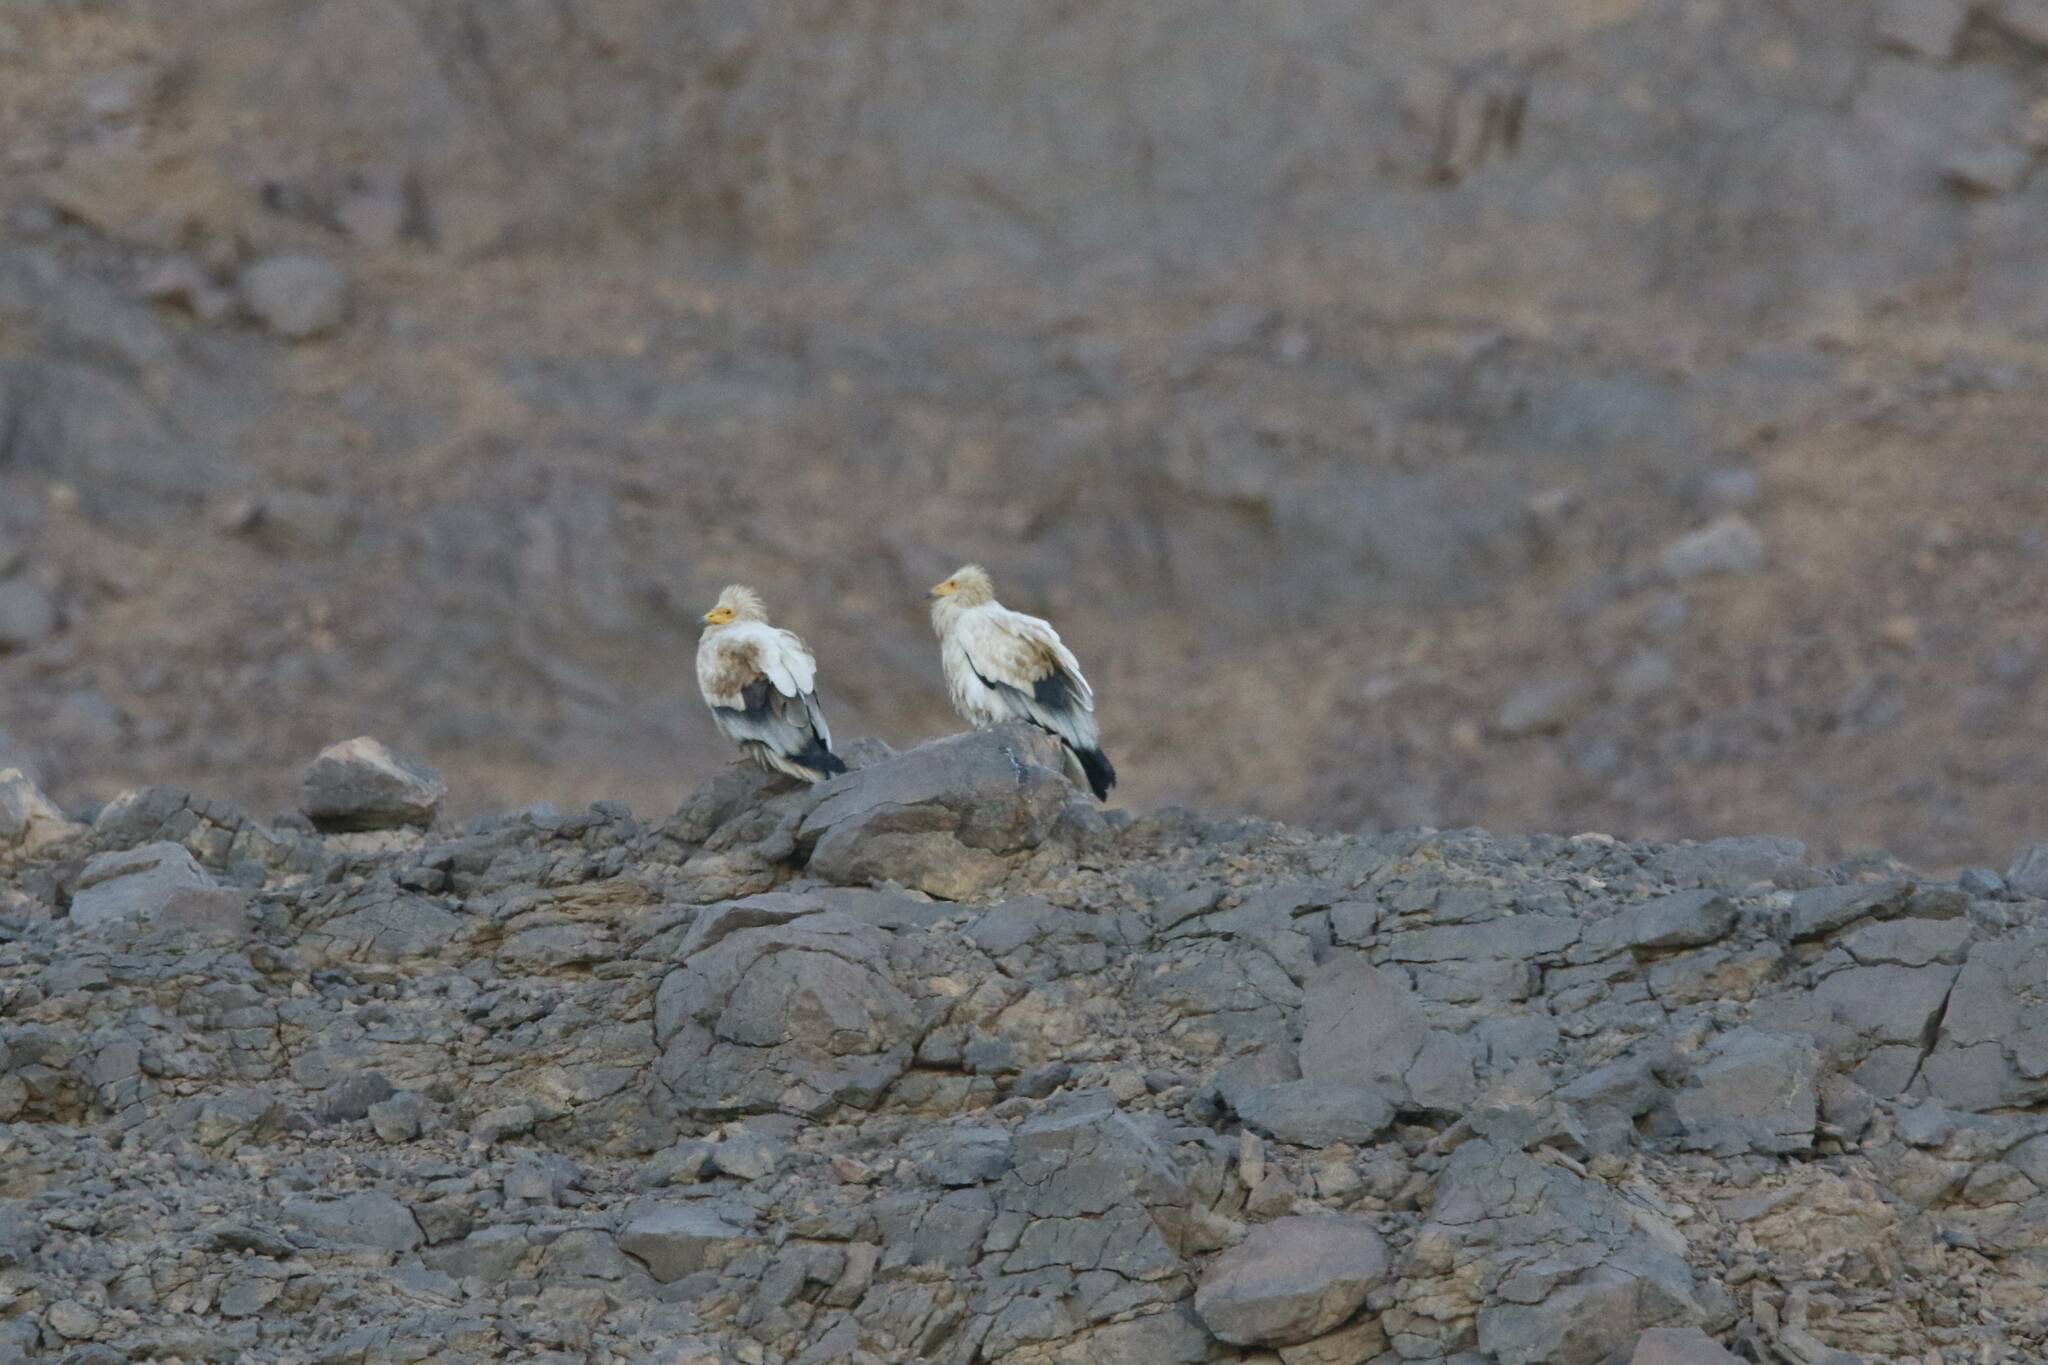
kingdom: Animalia
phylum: Chordata
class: Aves
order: Accipitriformes
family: Accipitridae
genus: Neophron
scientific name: Neophron percnopterus
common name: Egyptian vulture
